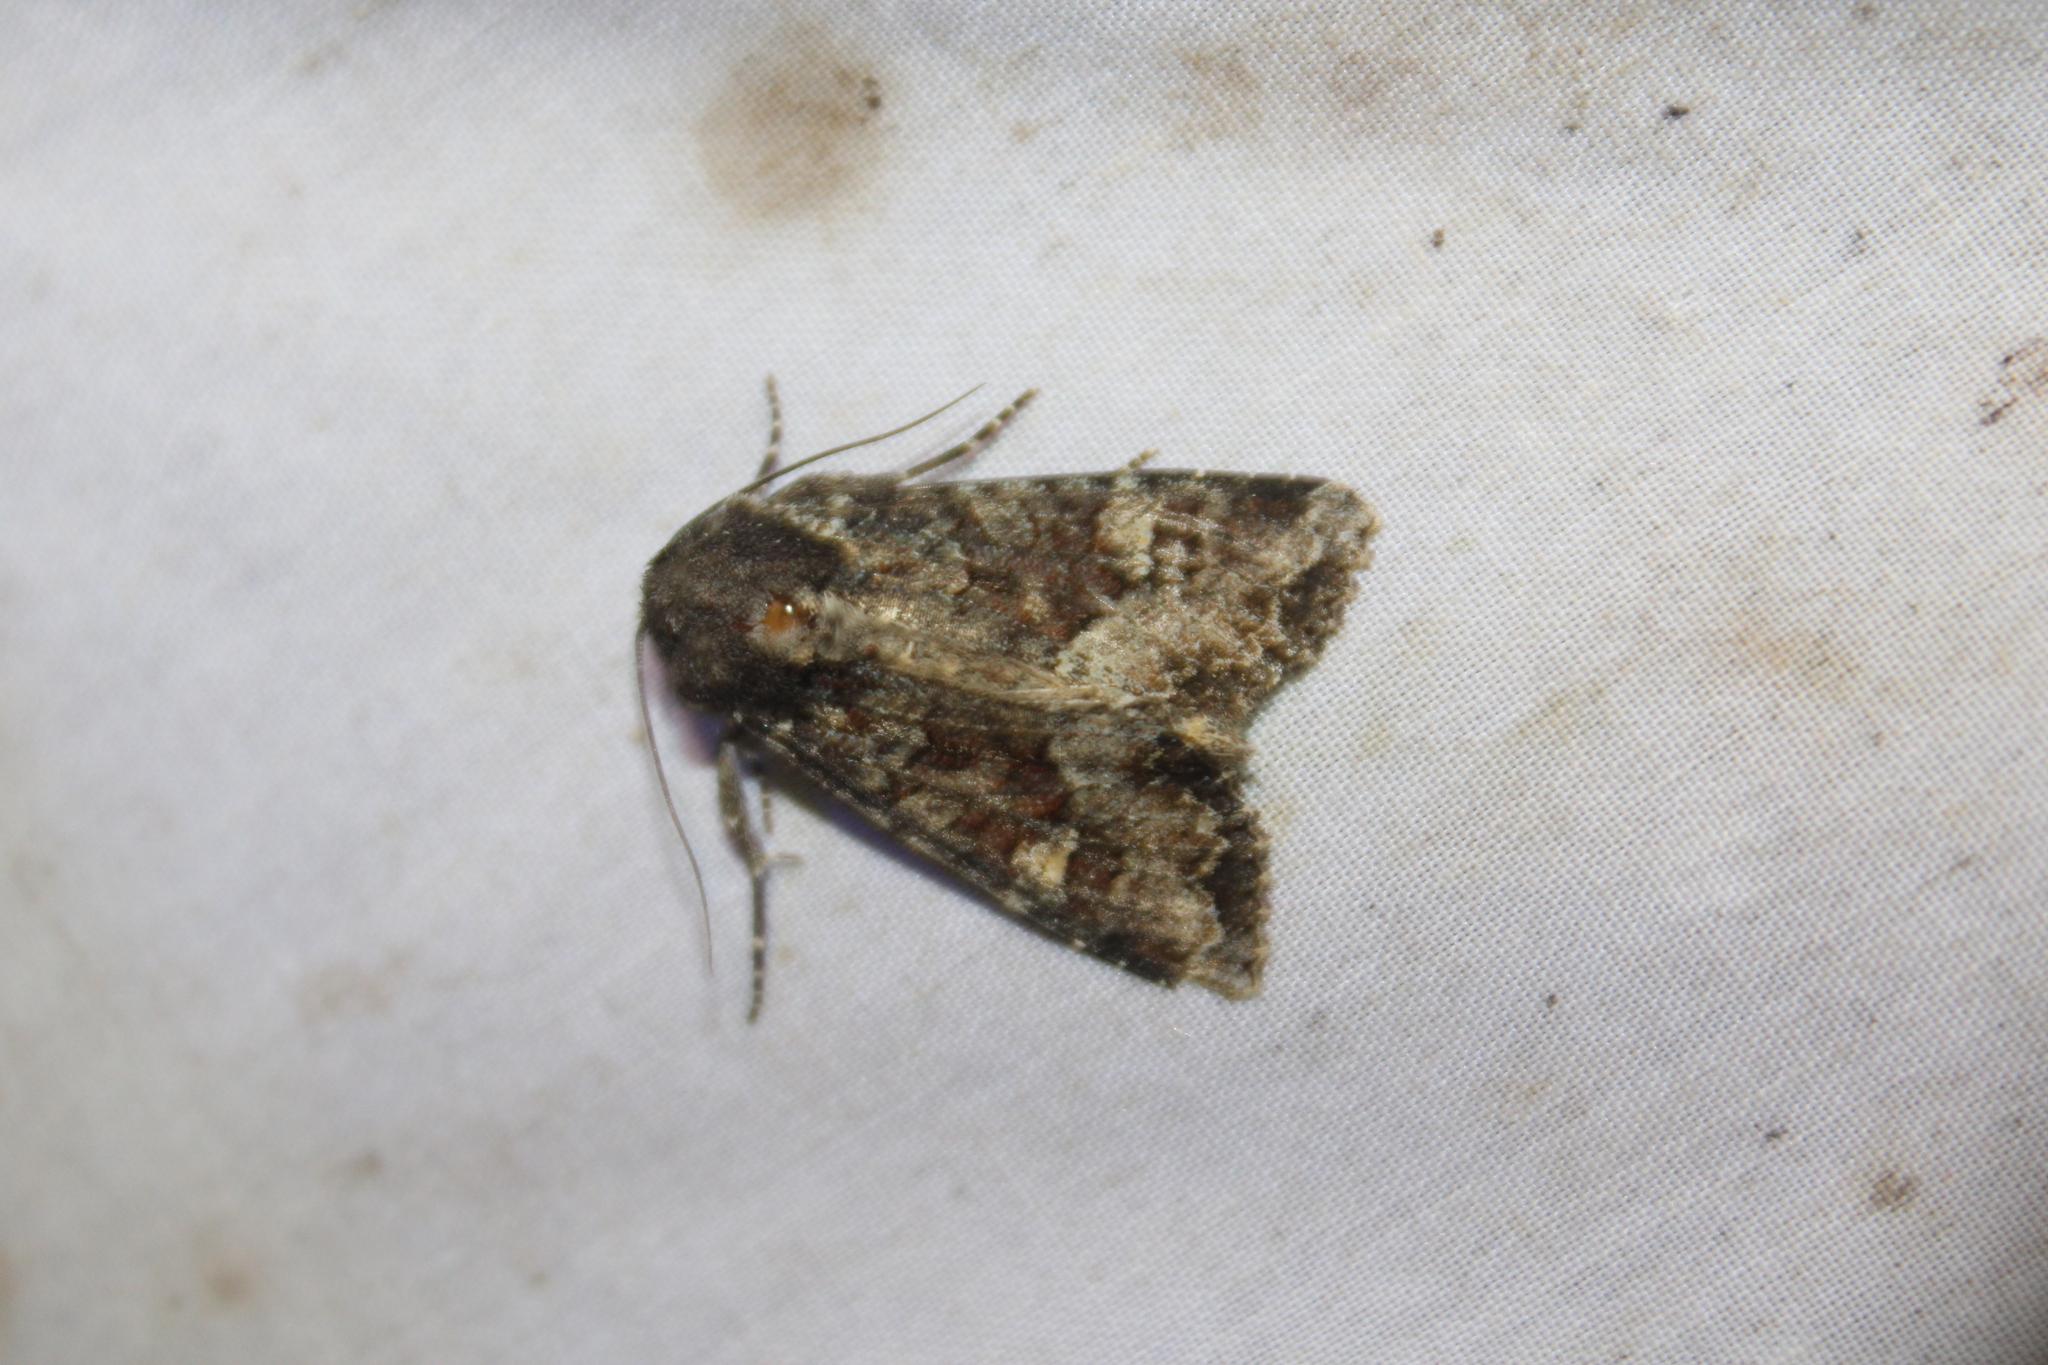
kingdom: Animalia
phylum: Arthropoda
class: Insecta
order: Lepidoptera
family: Noctuidae
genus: Apamea
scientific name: Apamea amputatrix
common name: Yellow-headed cutworm moth
